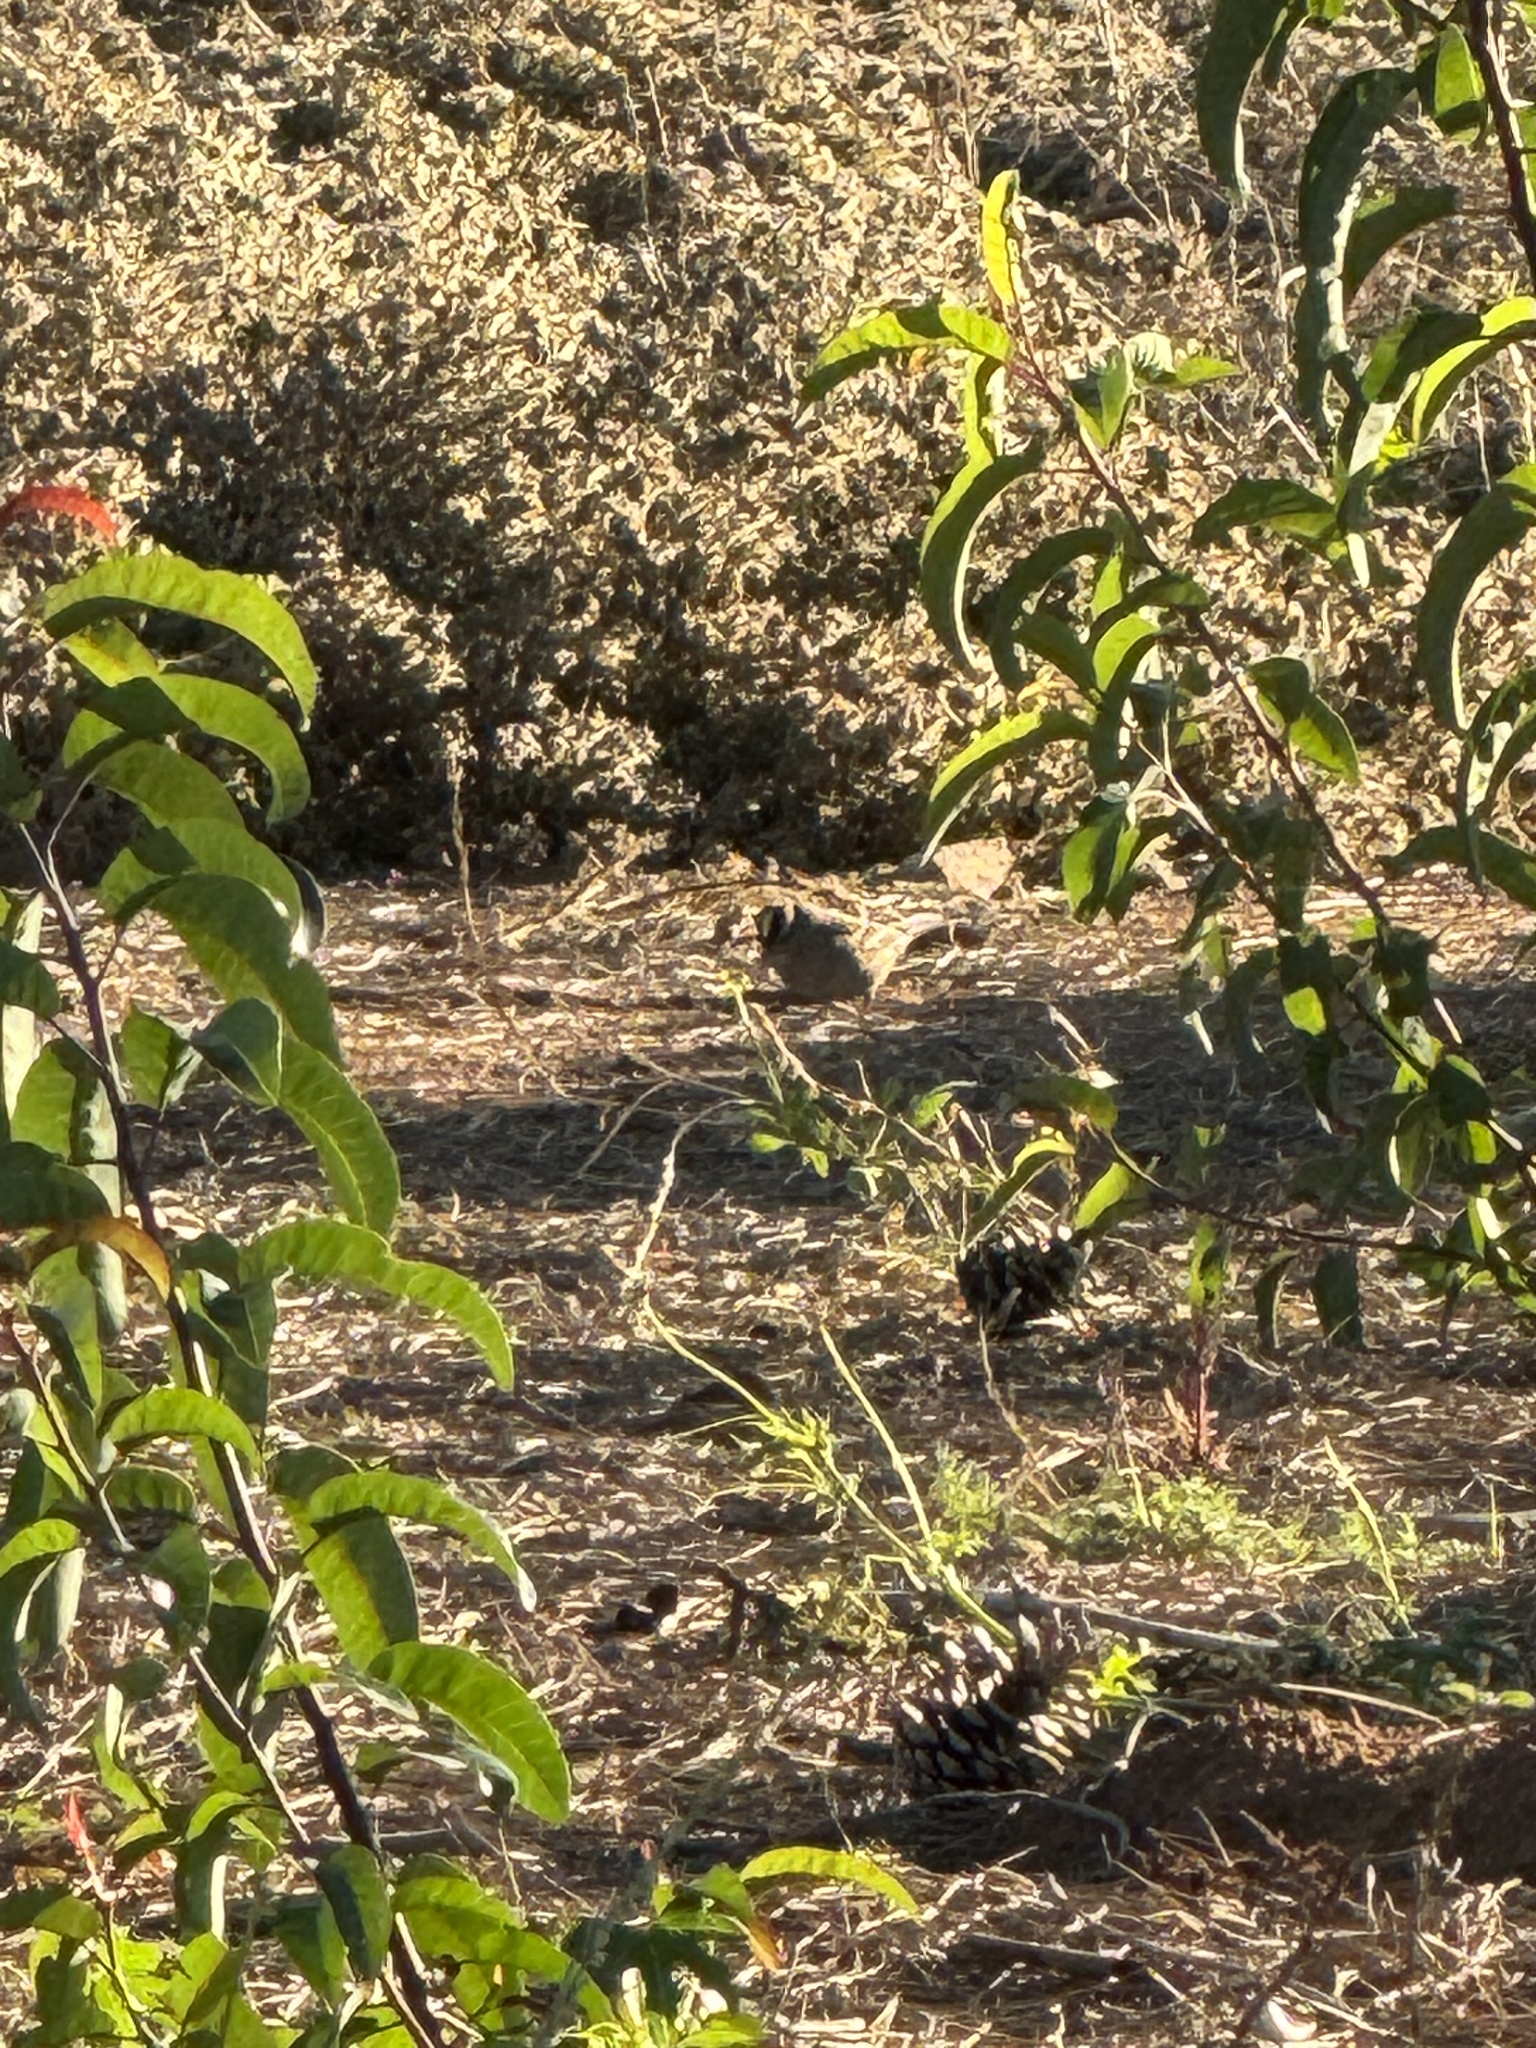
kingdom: Animalia
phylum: Chordata
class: Aves
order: Passeriformes
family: Passerellidae
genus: Zonotrichia
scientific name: Zonotrichia leucophrys
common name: White-crowned sparrow
